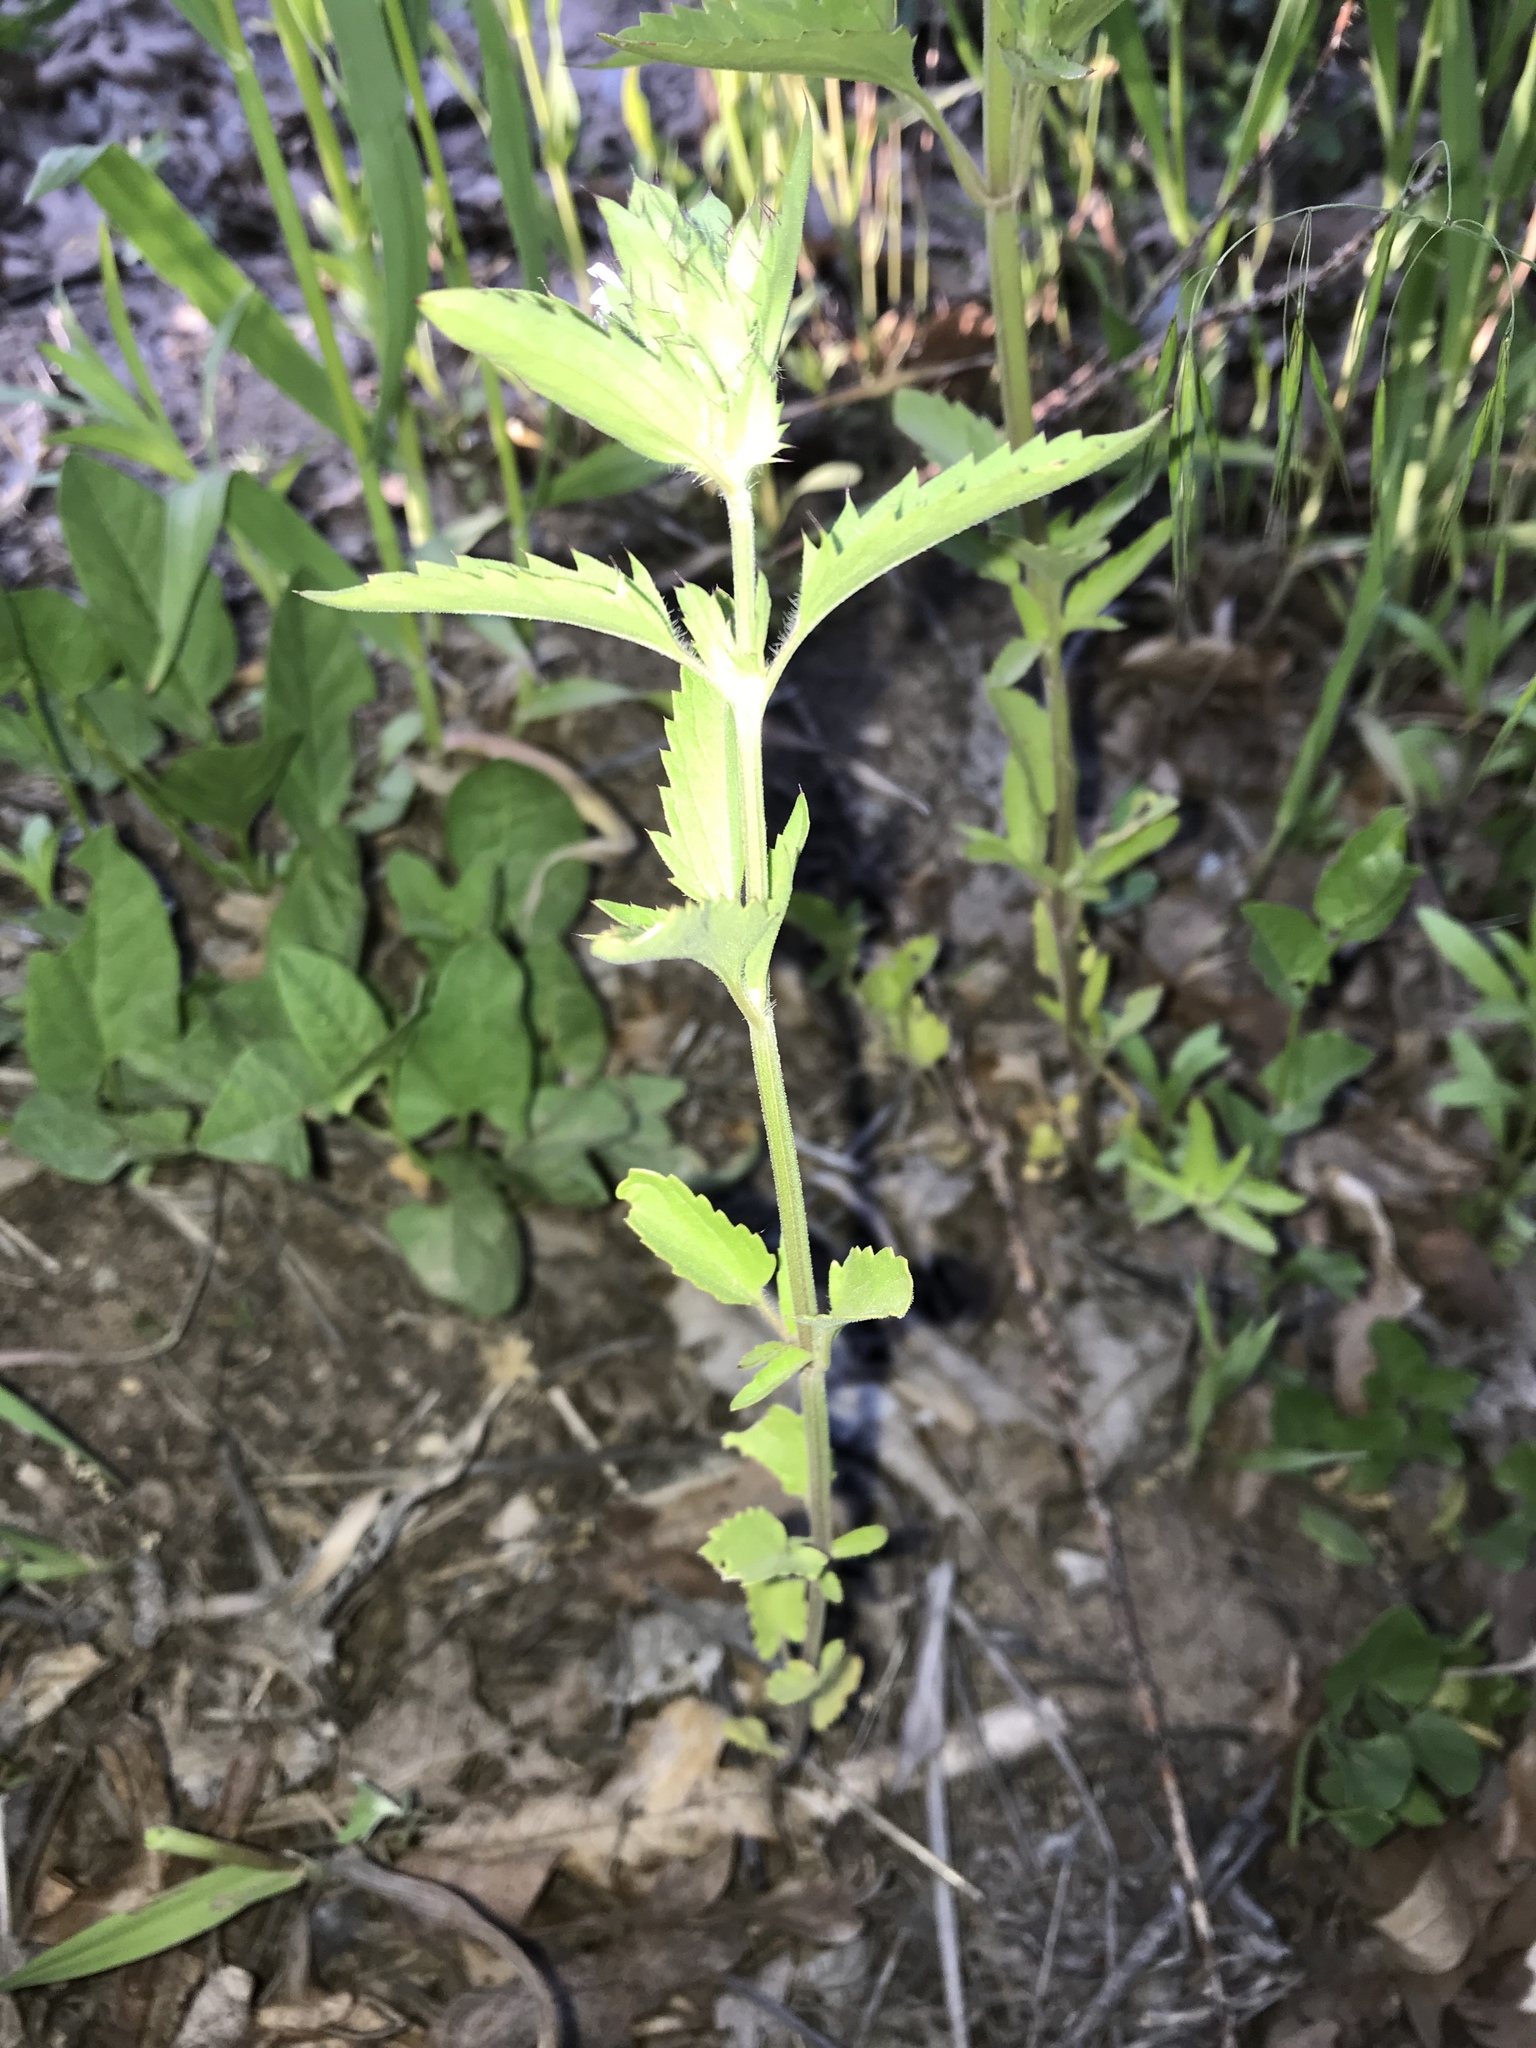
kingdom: Plantae
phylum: Tracheophyta
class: Magnoliopsida
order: Lamiales
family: Lamiaceae
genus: Dracocephalum
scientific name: Dracocephalum parviflorum
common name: American dragonhead
